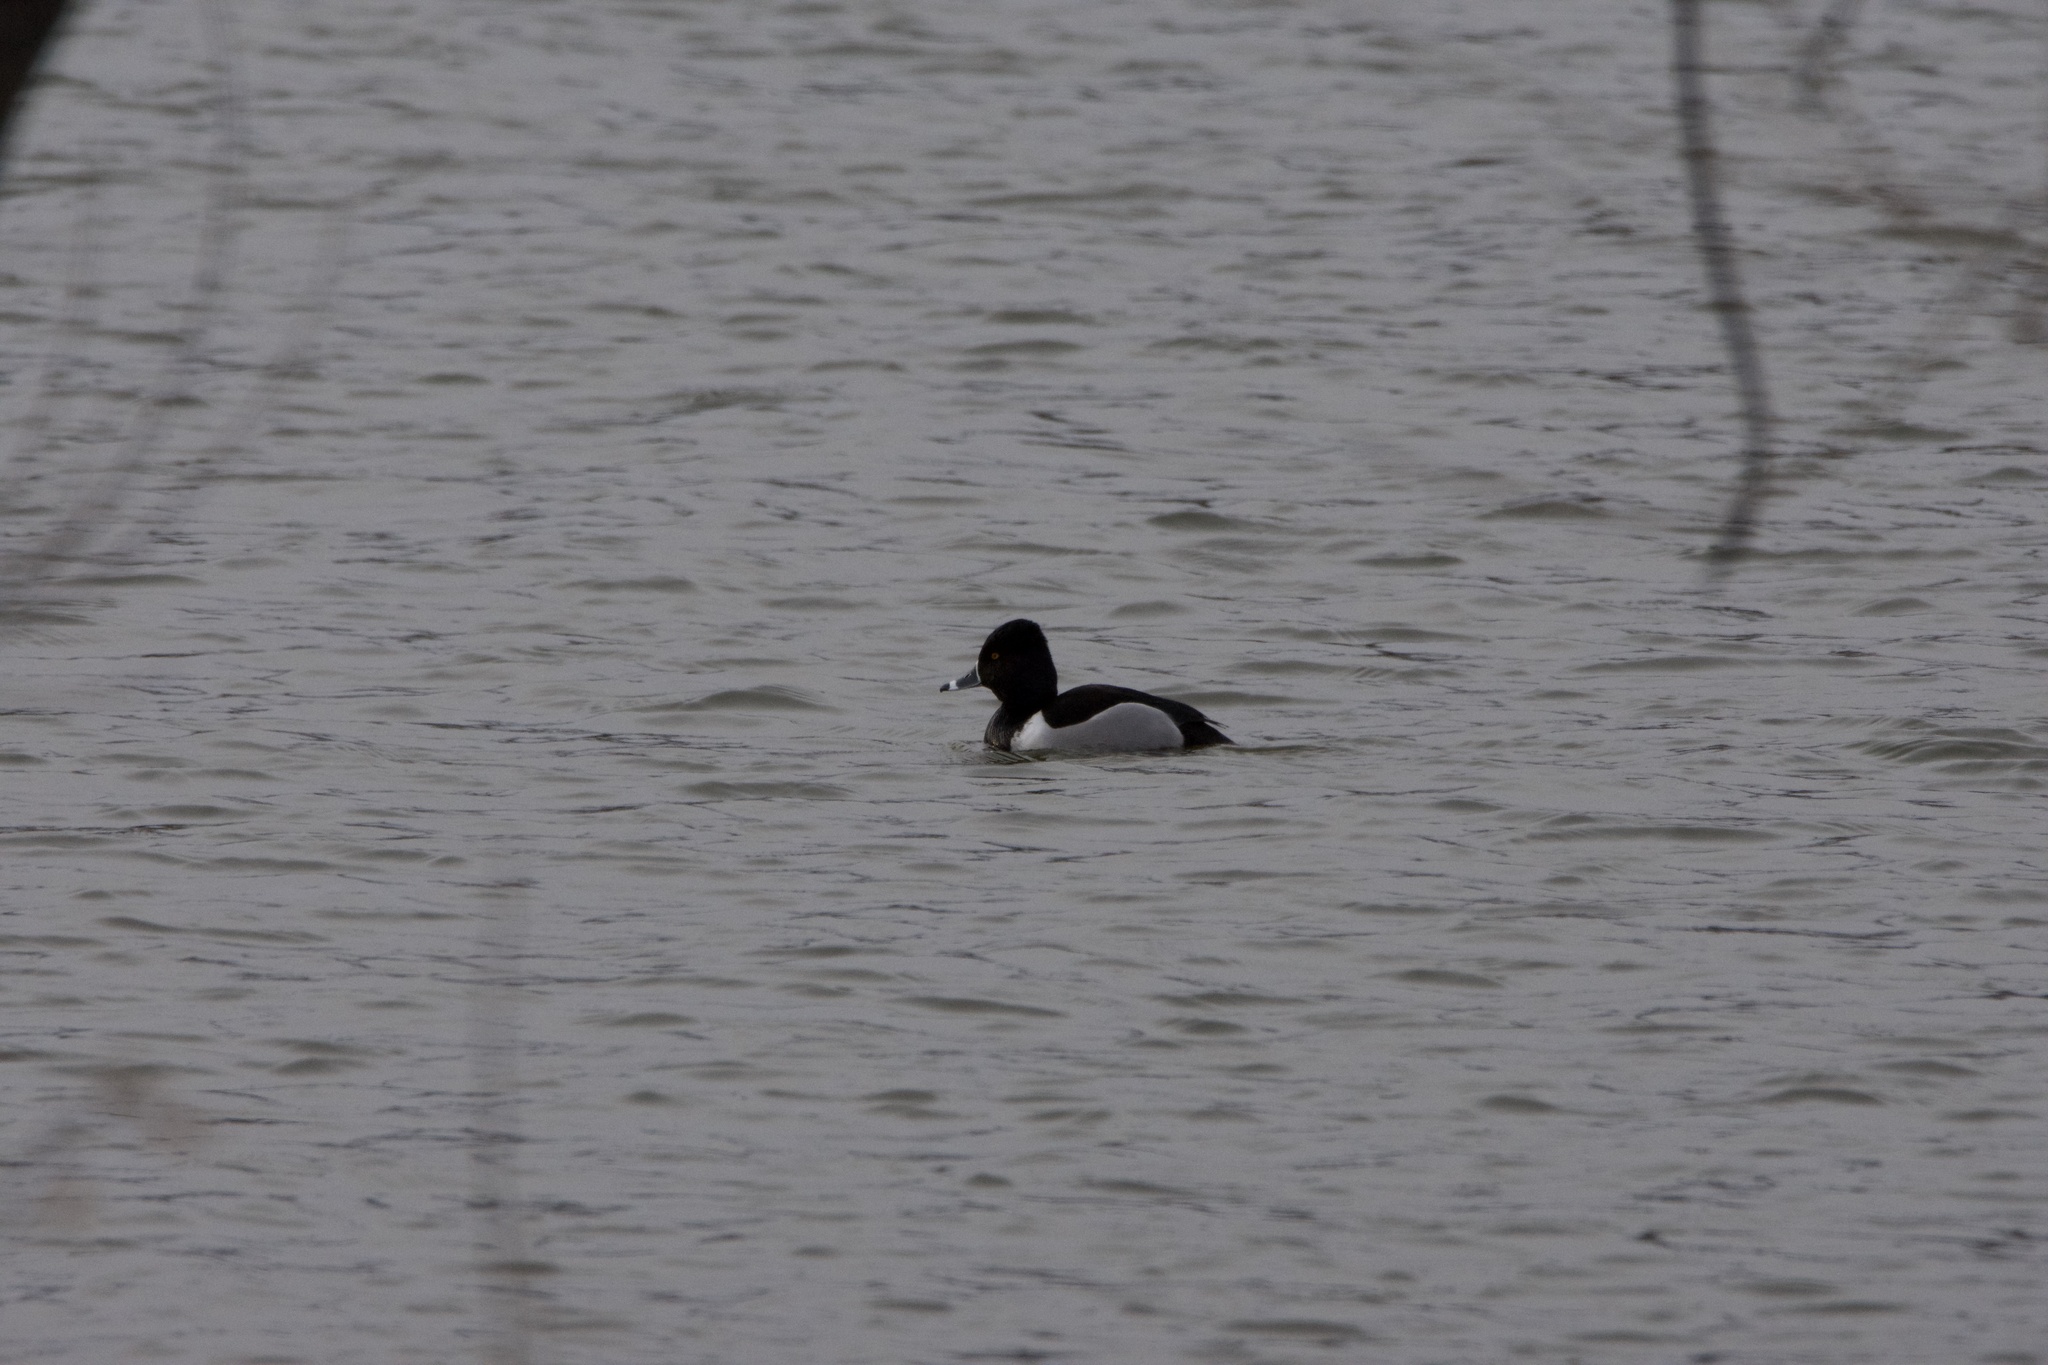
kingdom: Animalia
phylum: Chordata
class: Aves
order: Anseriformes
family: Anatidae
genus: Aythya
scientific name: Aythya collaris
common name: Ring-necked duck
